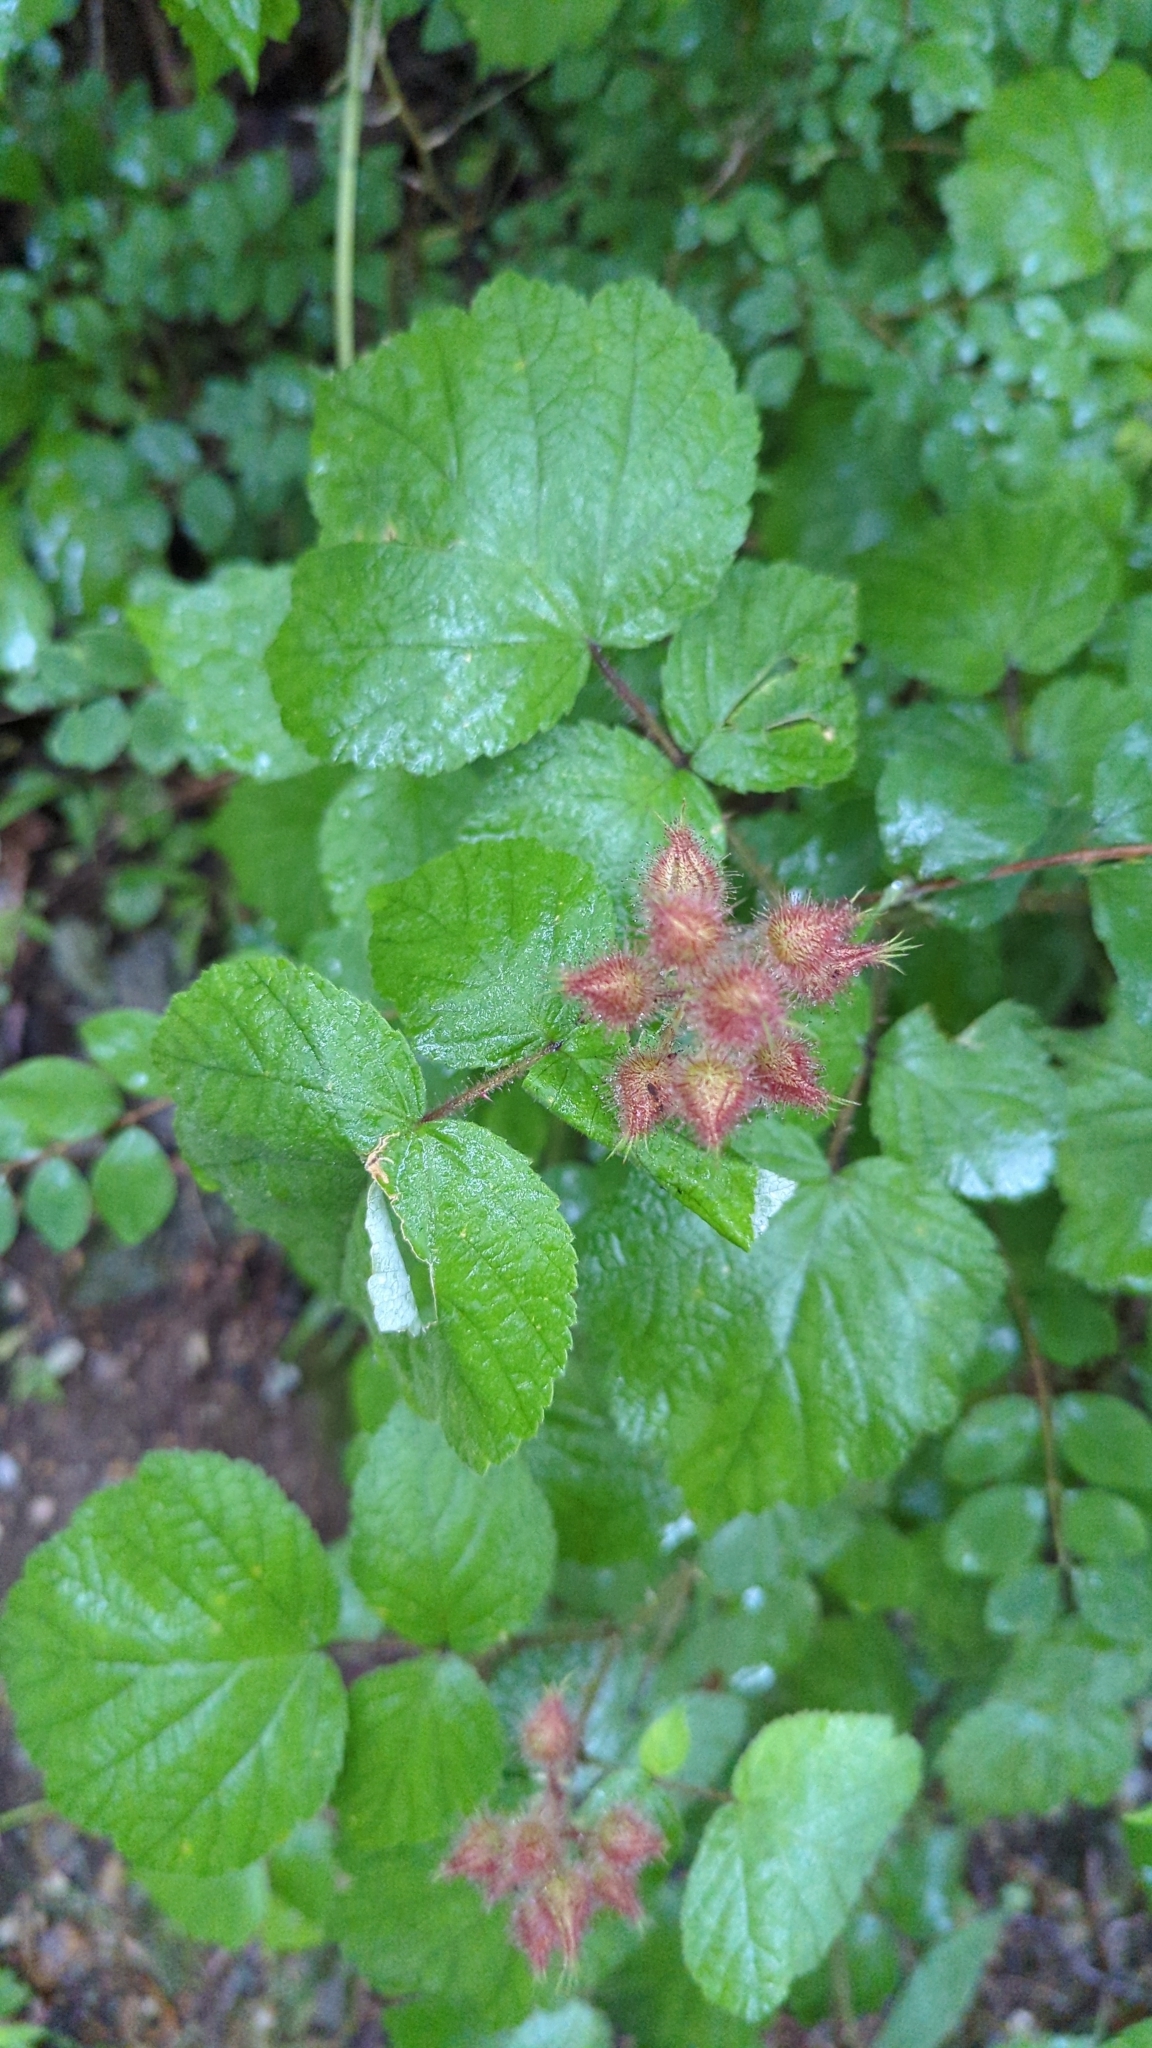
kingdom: Plantae
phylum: Tracheophyta
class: Magnoliopsida
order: Rosales
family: Rosaceae
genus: Rubus
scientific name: Rubus phoenicolasius
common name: Japanese wineberry
